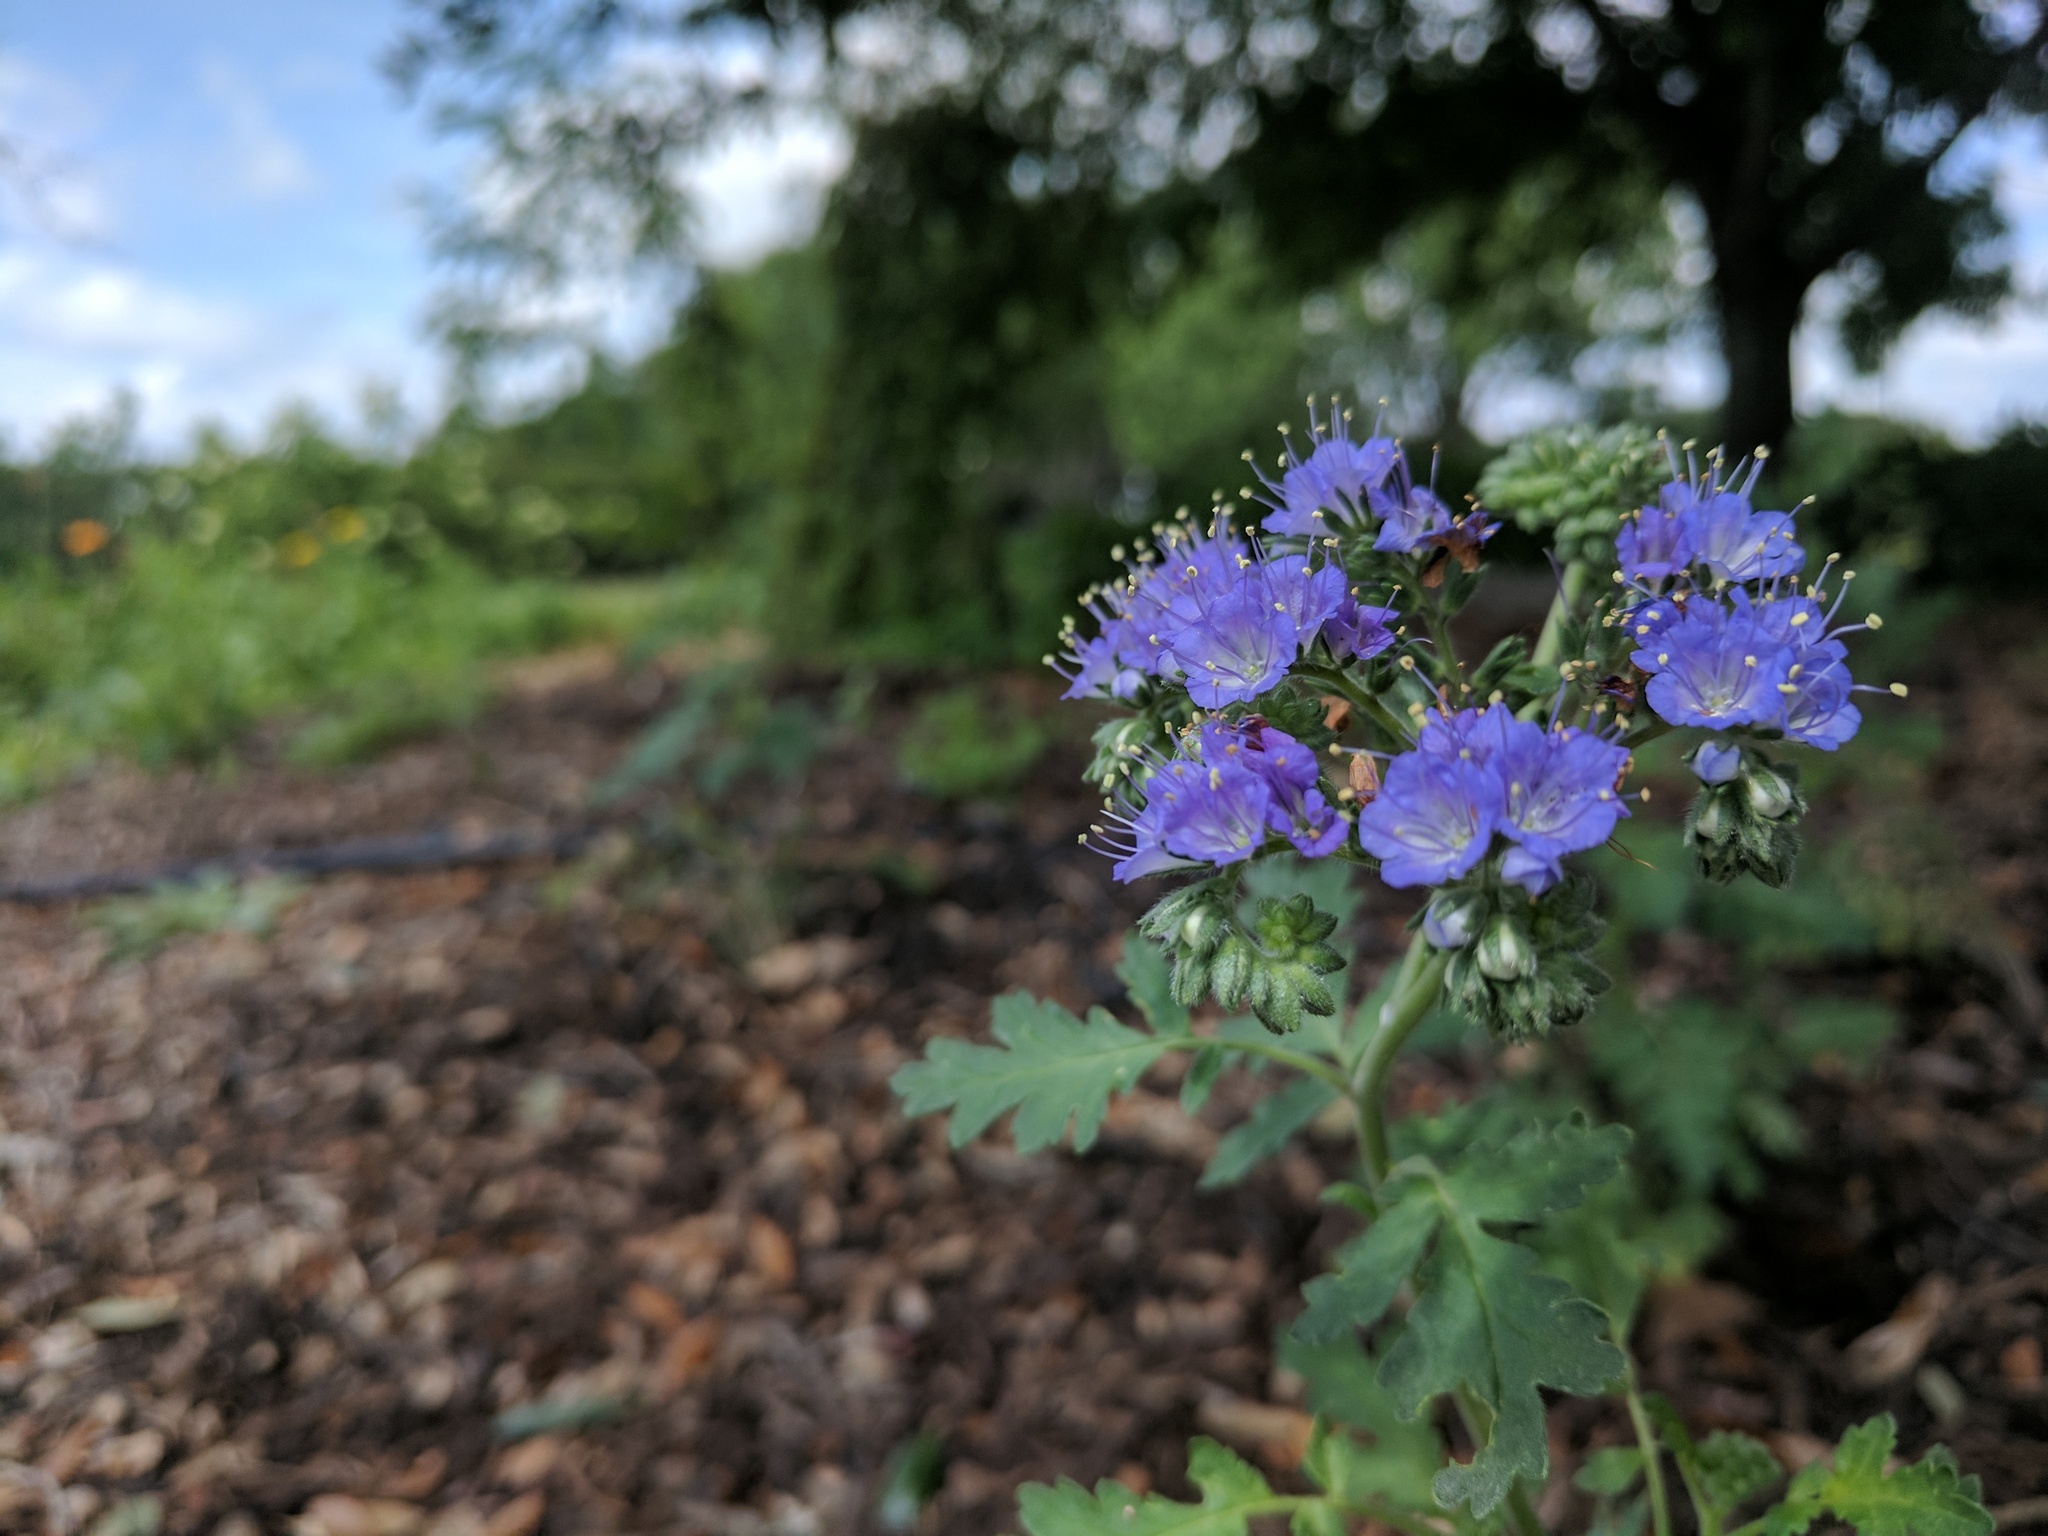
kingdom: Plantae
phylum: Tracheophyta
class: Magnoliopsida
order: Boraginales
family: Hydrophyllaceae
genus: Phacelia
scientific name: Phacelia congesta
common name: Blue curls
